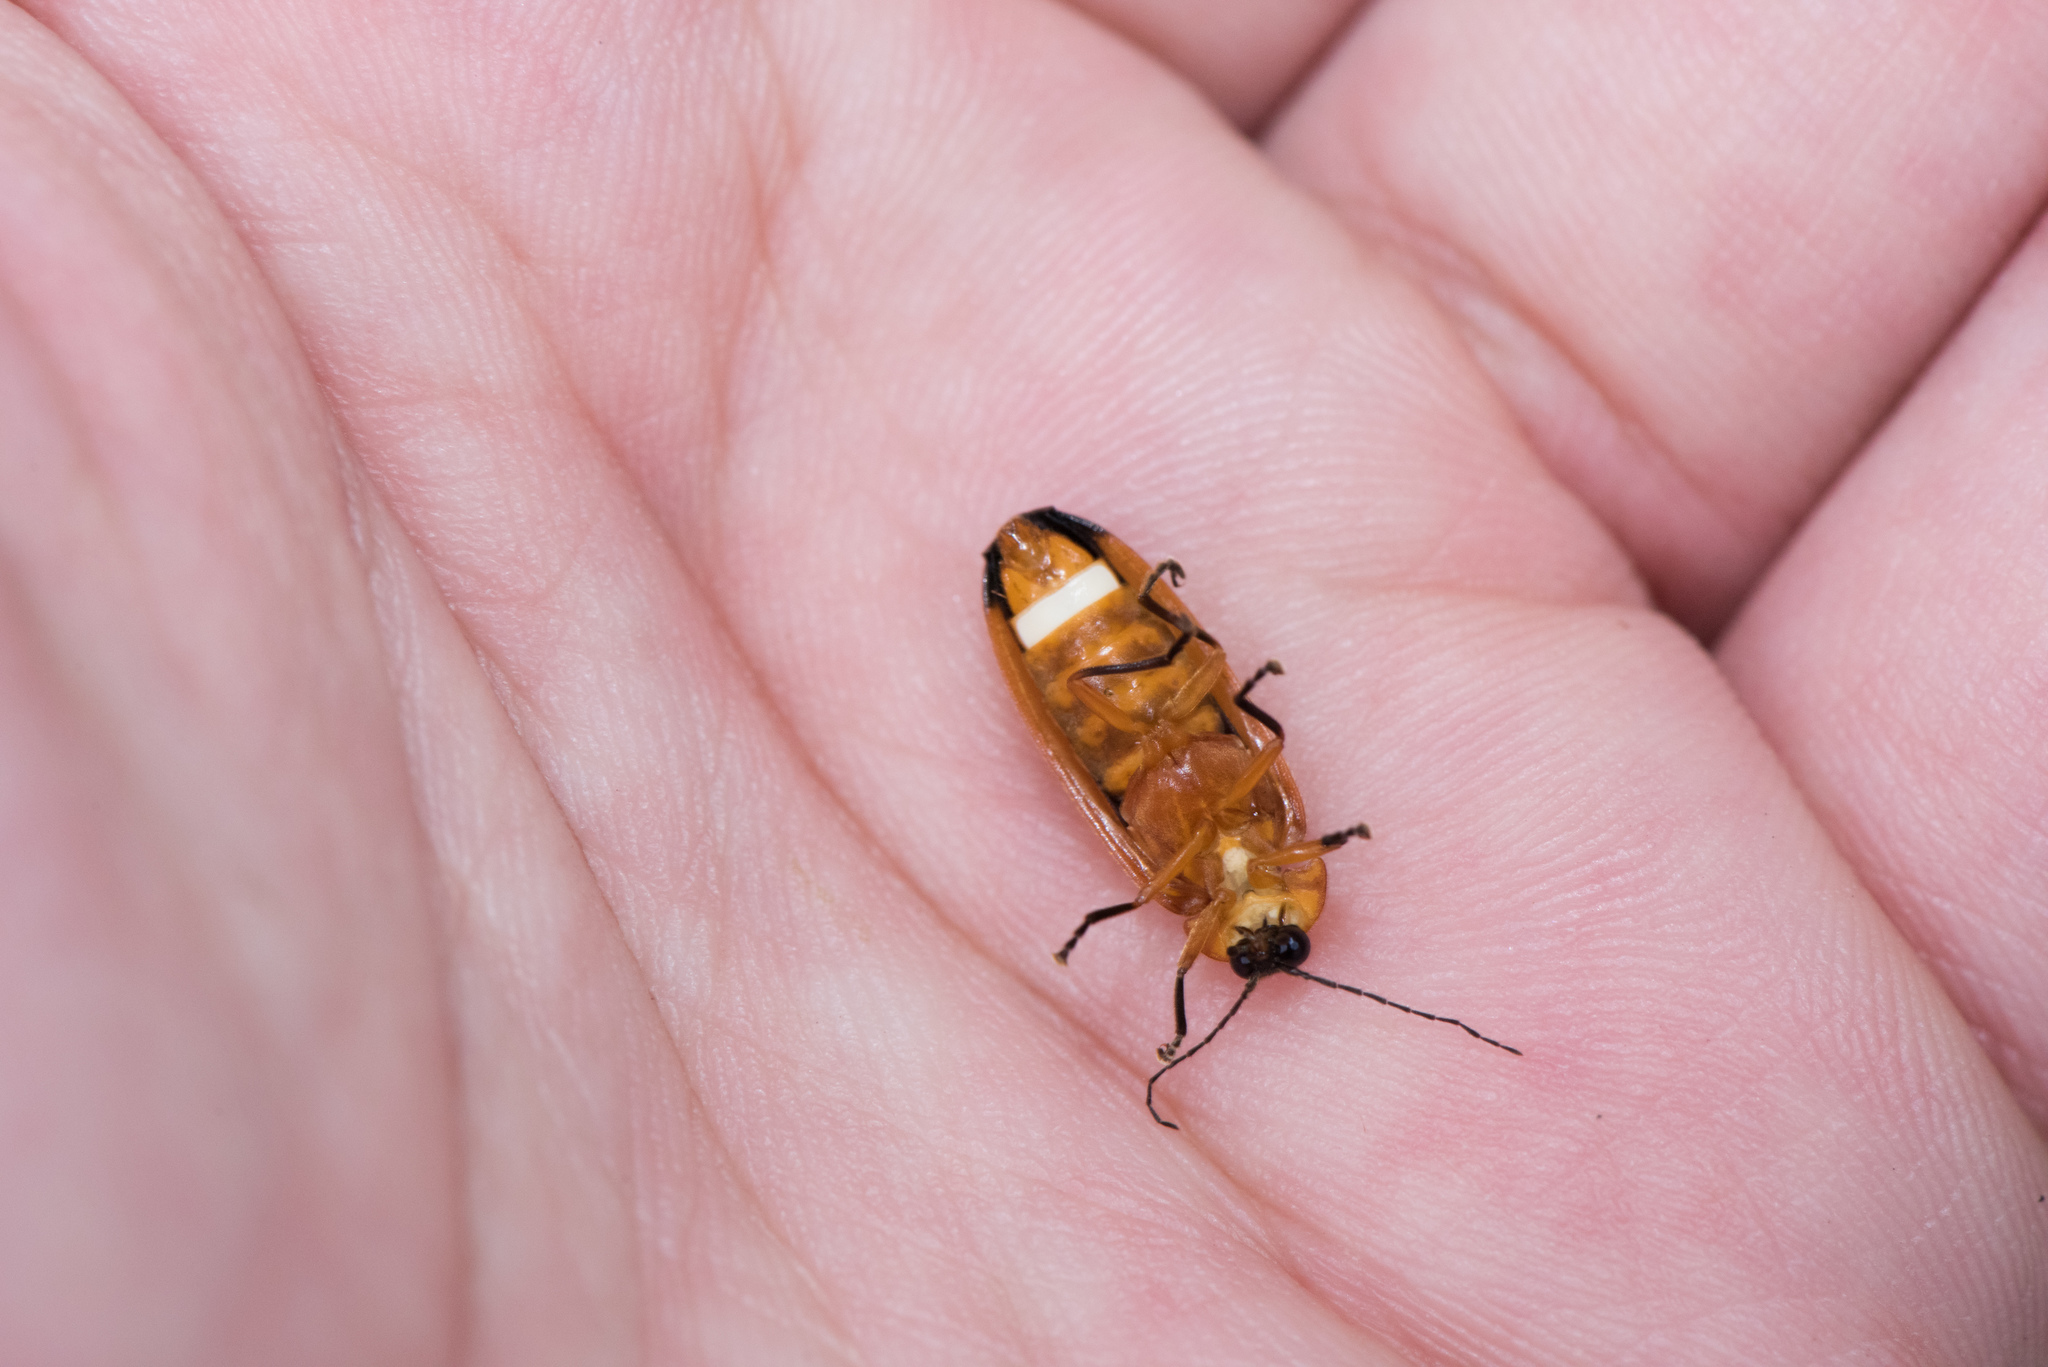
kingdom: Animalia
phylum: Arthropoda
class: Insecta
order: Coleoptera
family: Lampyridae
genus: Abscondita
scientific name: Abscondita anceyi
